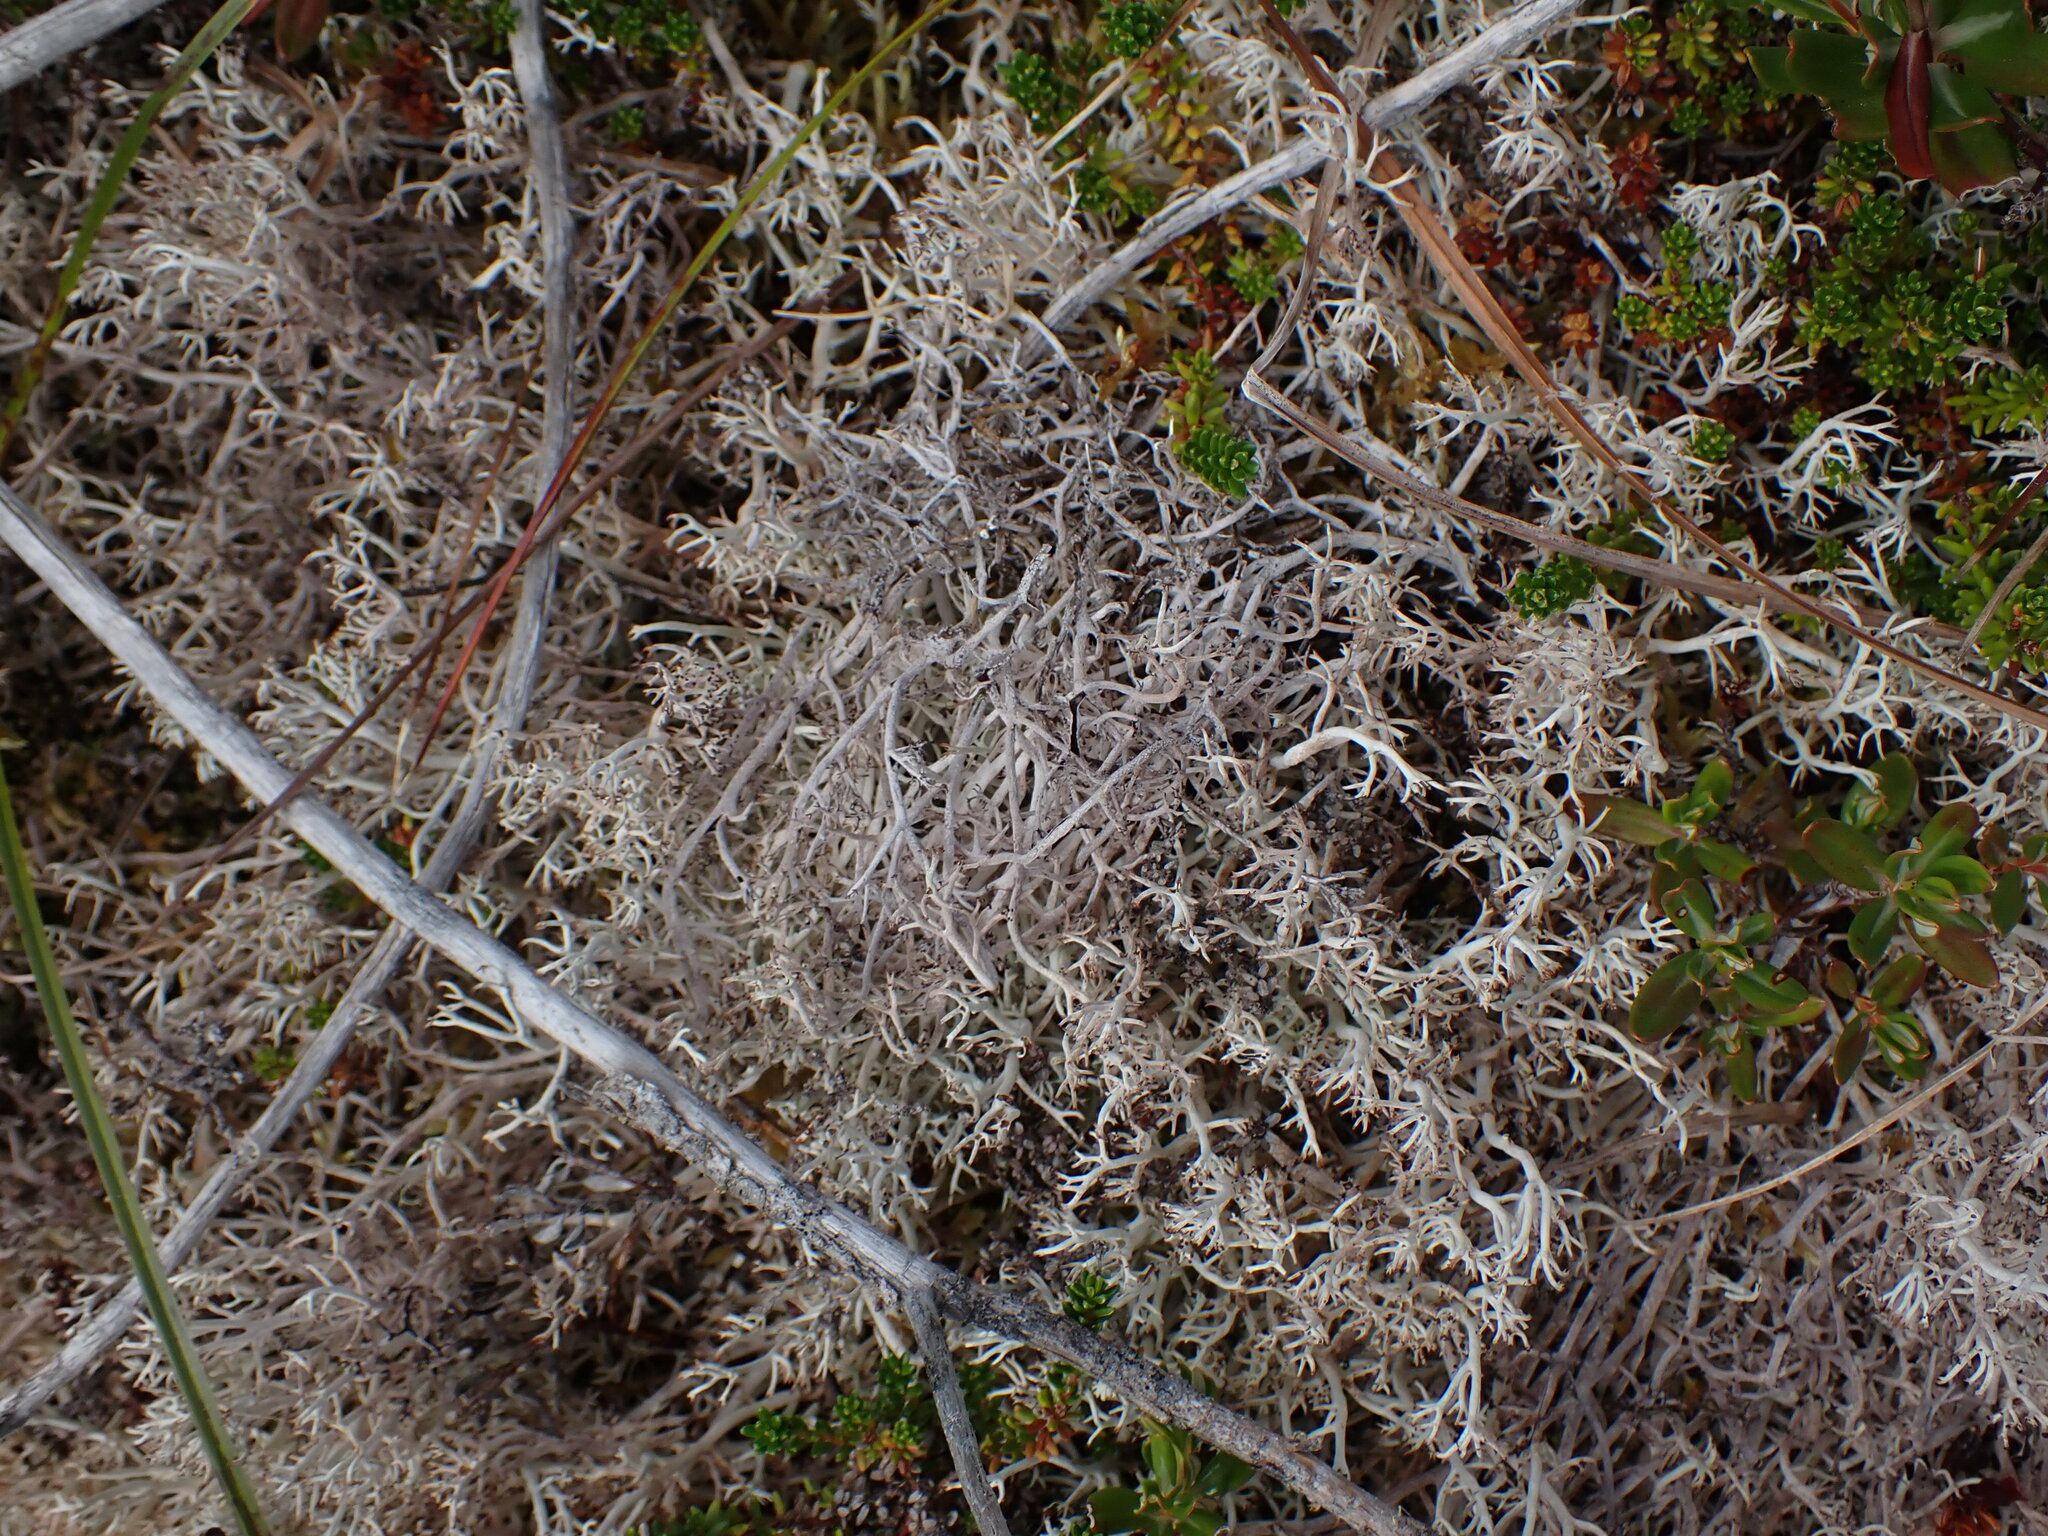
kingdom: Fungi
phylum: Ascomycota
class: Lecanoromycetes
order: Lecanorales
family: Cladoniaceae
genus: Cladonia
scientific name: Cladonia rangiferina
